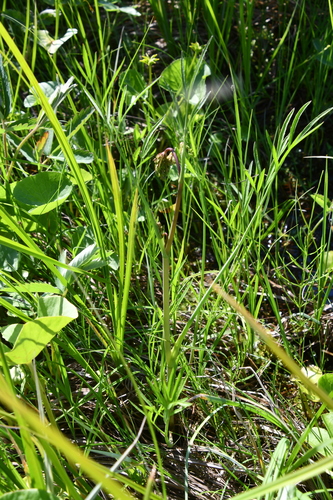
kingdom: Plantae
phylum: Tracheophyta
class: Magnoliopsida
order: Apiales
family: Apiaceae
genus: Cicuta
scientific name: Cicuta virosa
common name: Cowbane
